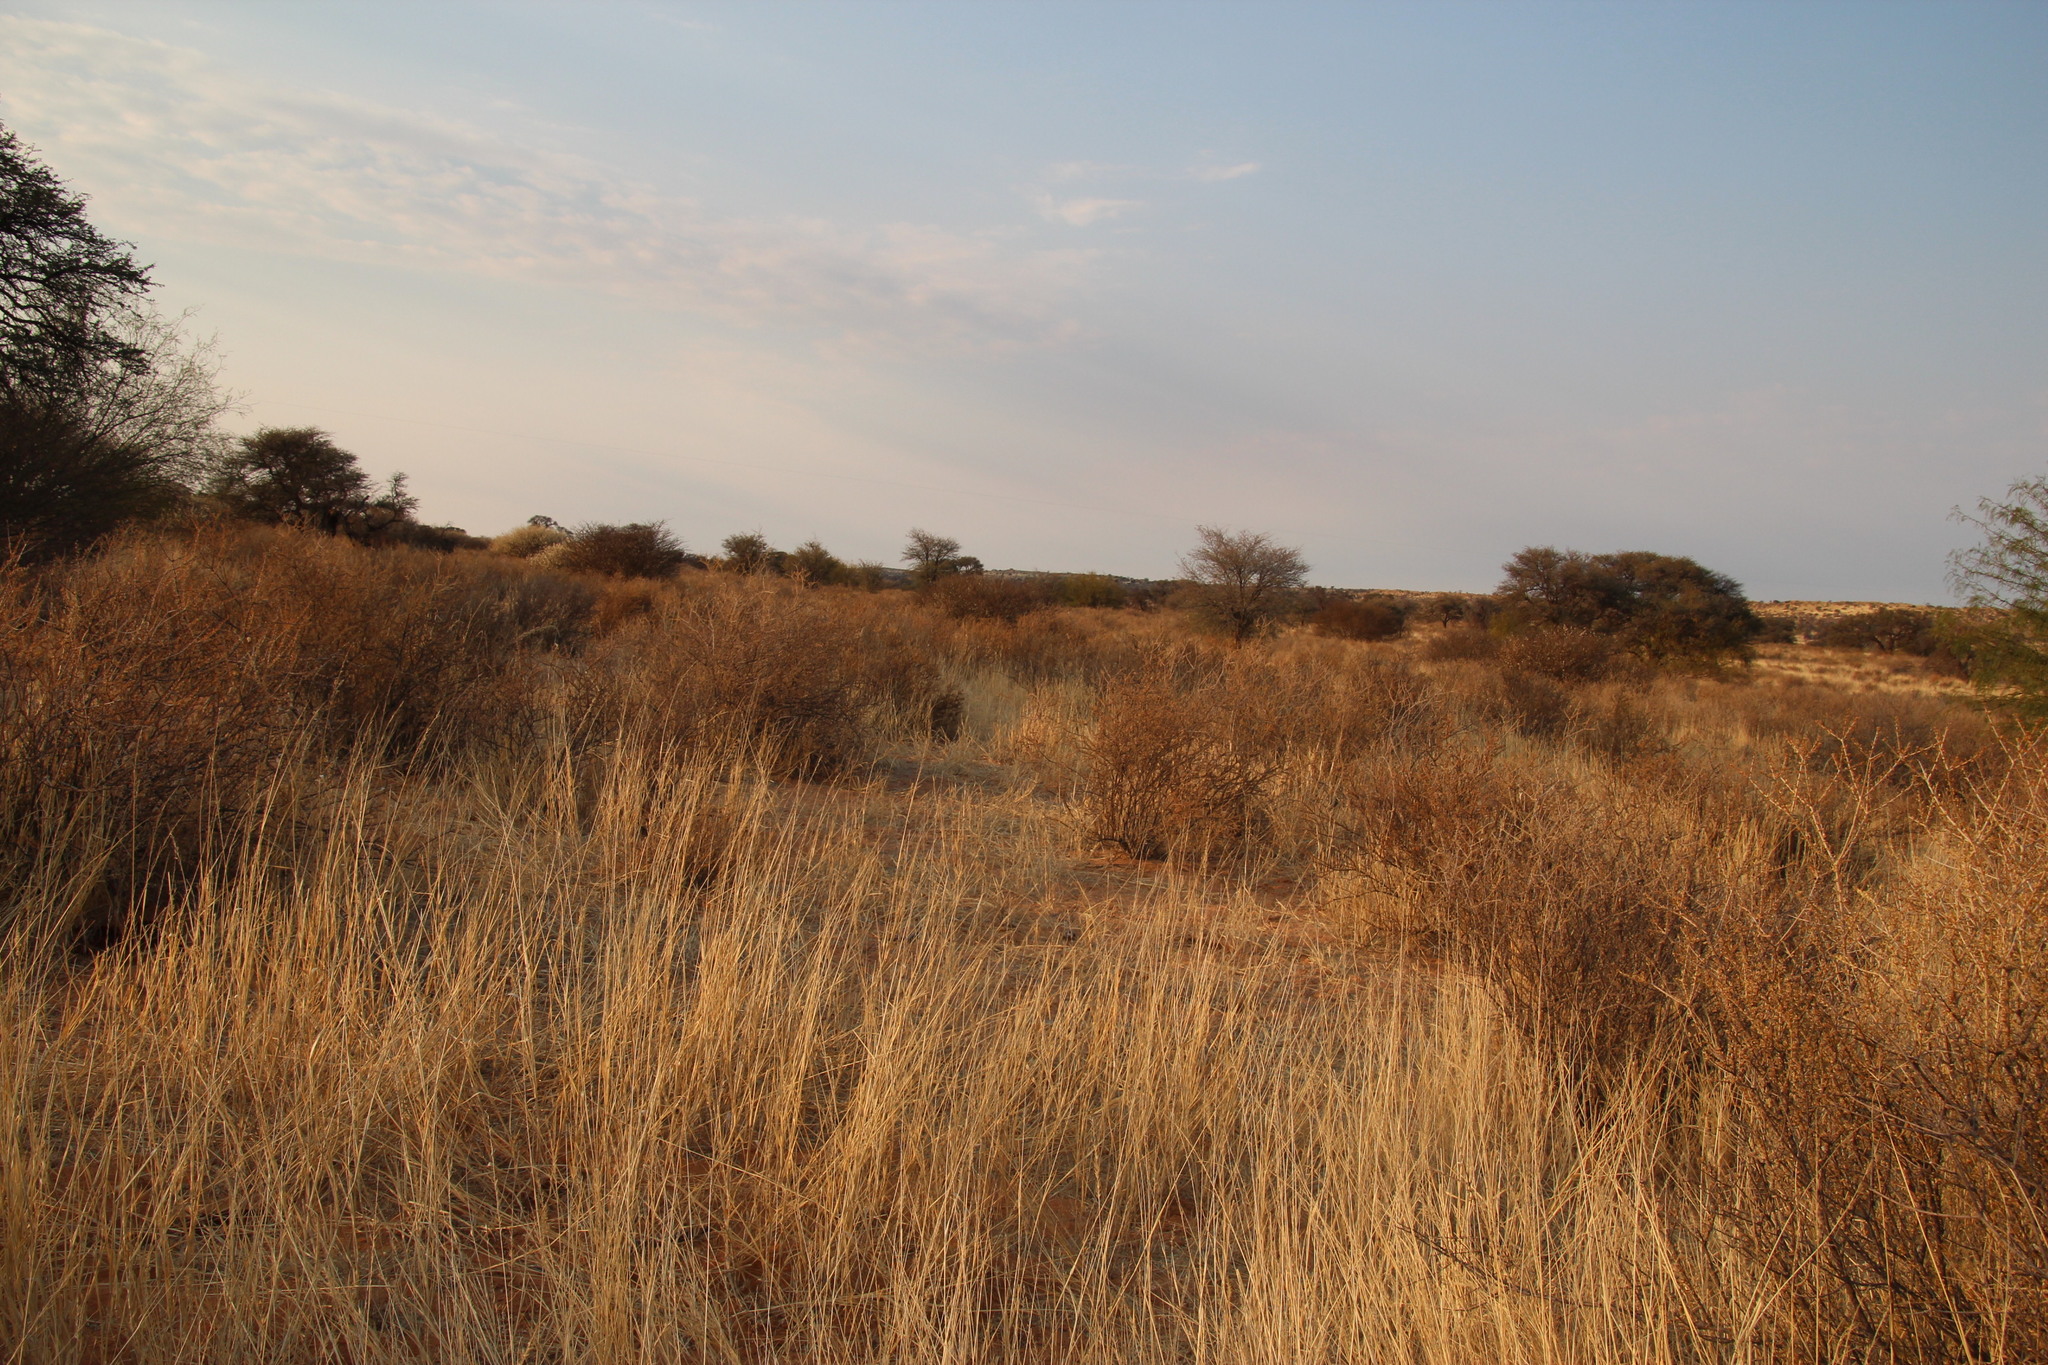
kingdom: Plantae
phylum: Tracheophyta
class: Magnoliopsida
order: Lamiales
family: Bignoniaceae
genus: Rhigozum
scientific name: Rhigozum trichotomum
